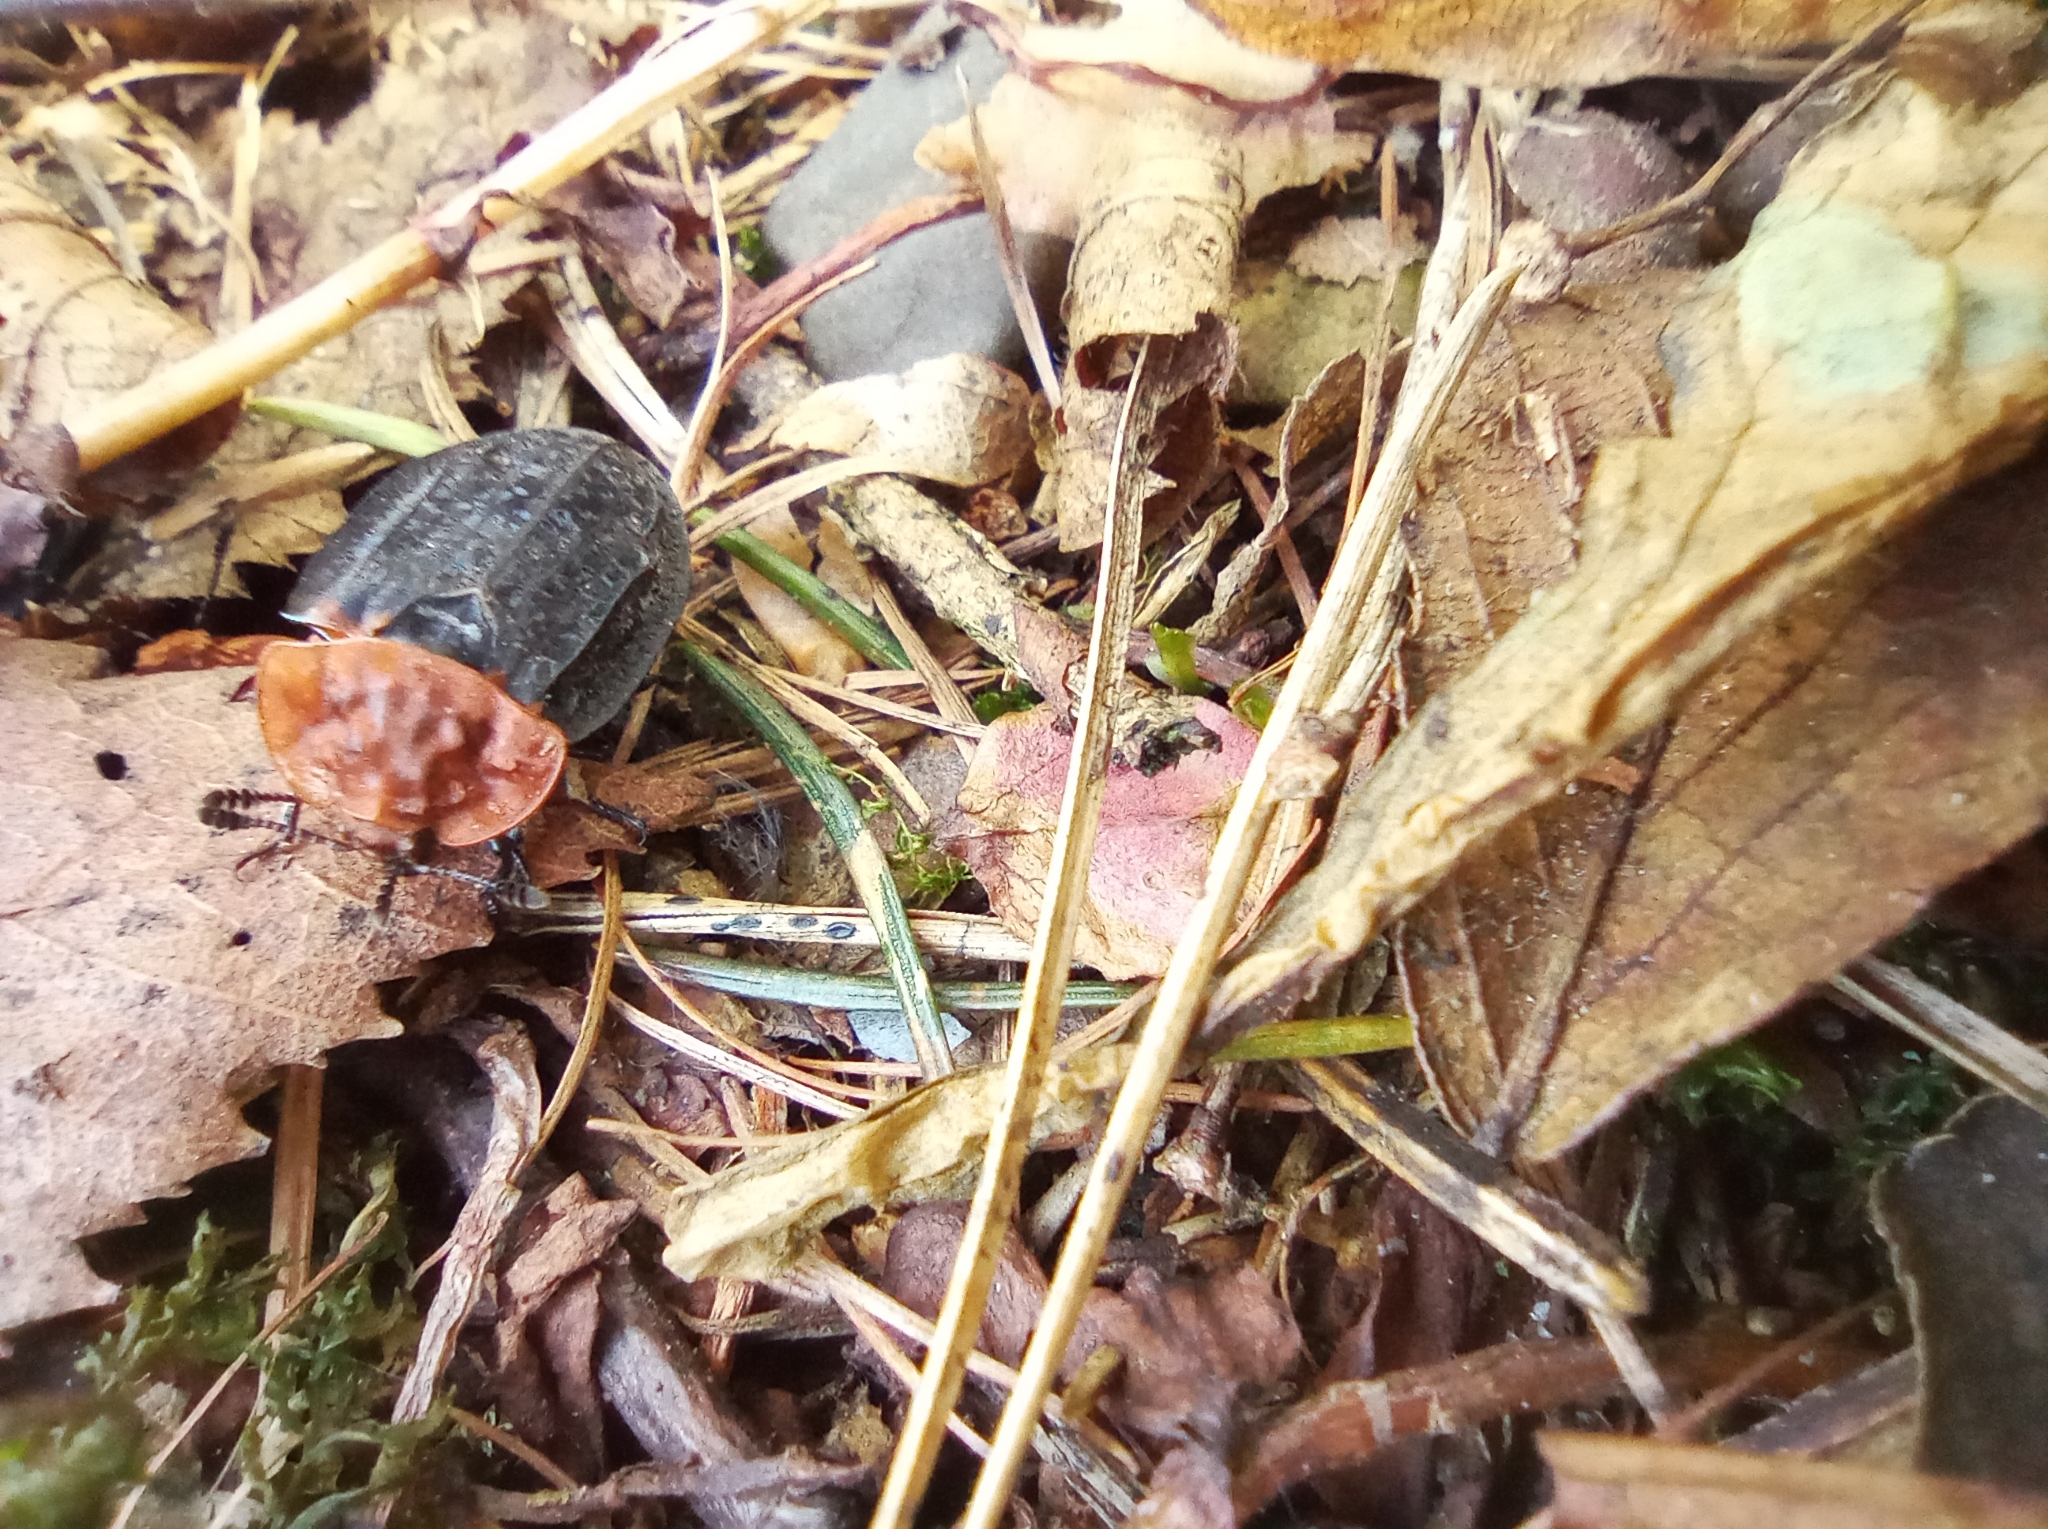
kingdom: Animalia
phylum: Arthropoda
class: Insecta
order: Coleoptera
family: Staphylinidae
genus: Oiceoptoma
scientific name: Oiceoptoma thoracicum
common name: Red-breasted carrion beetle
